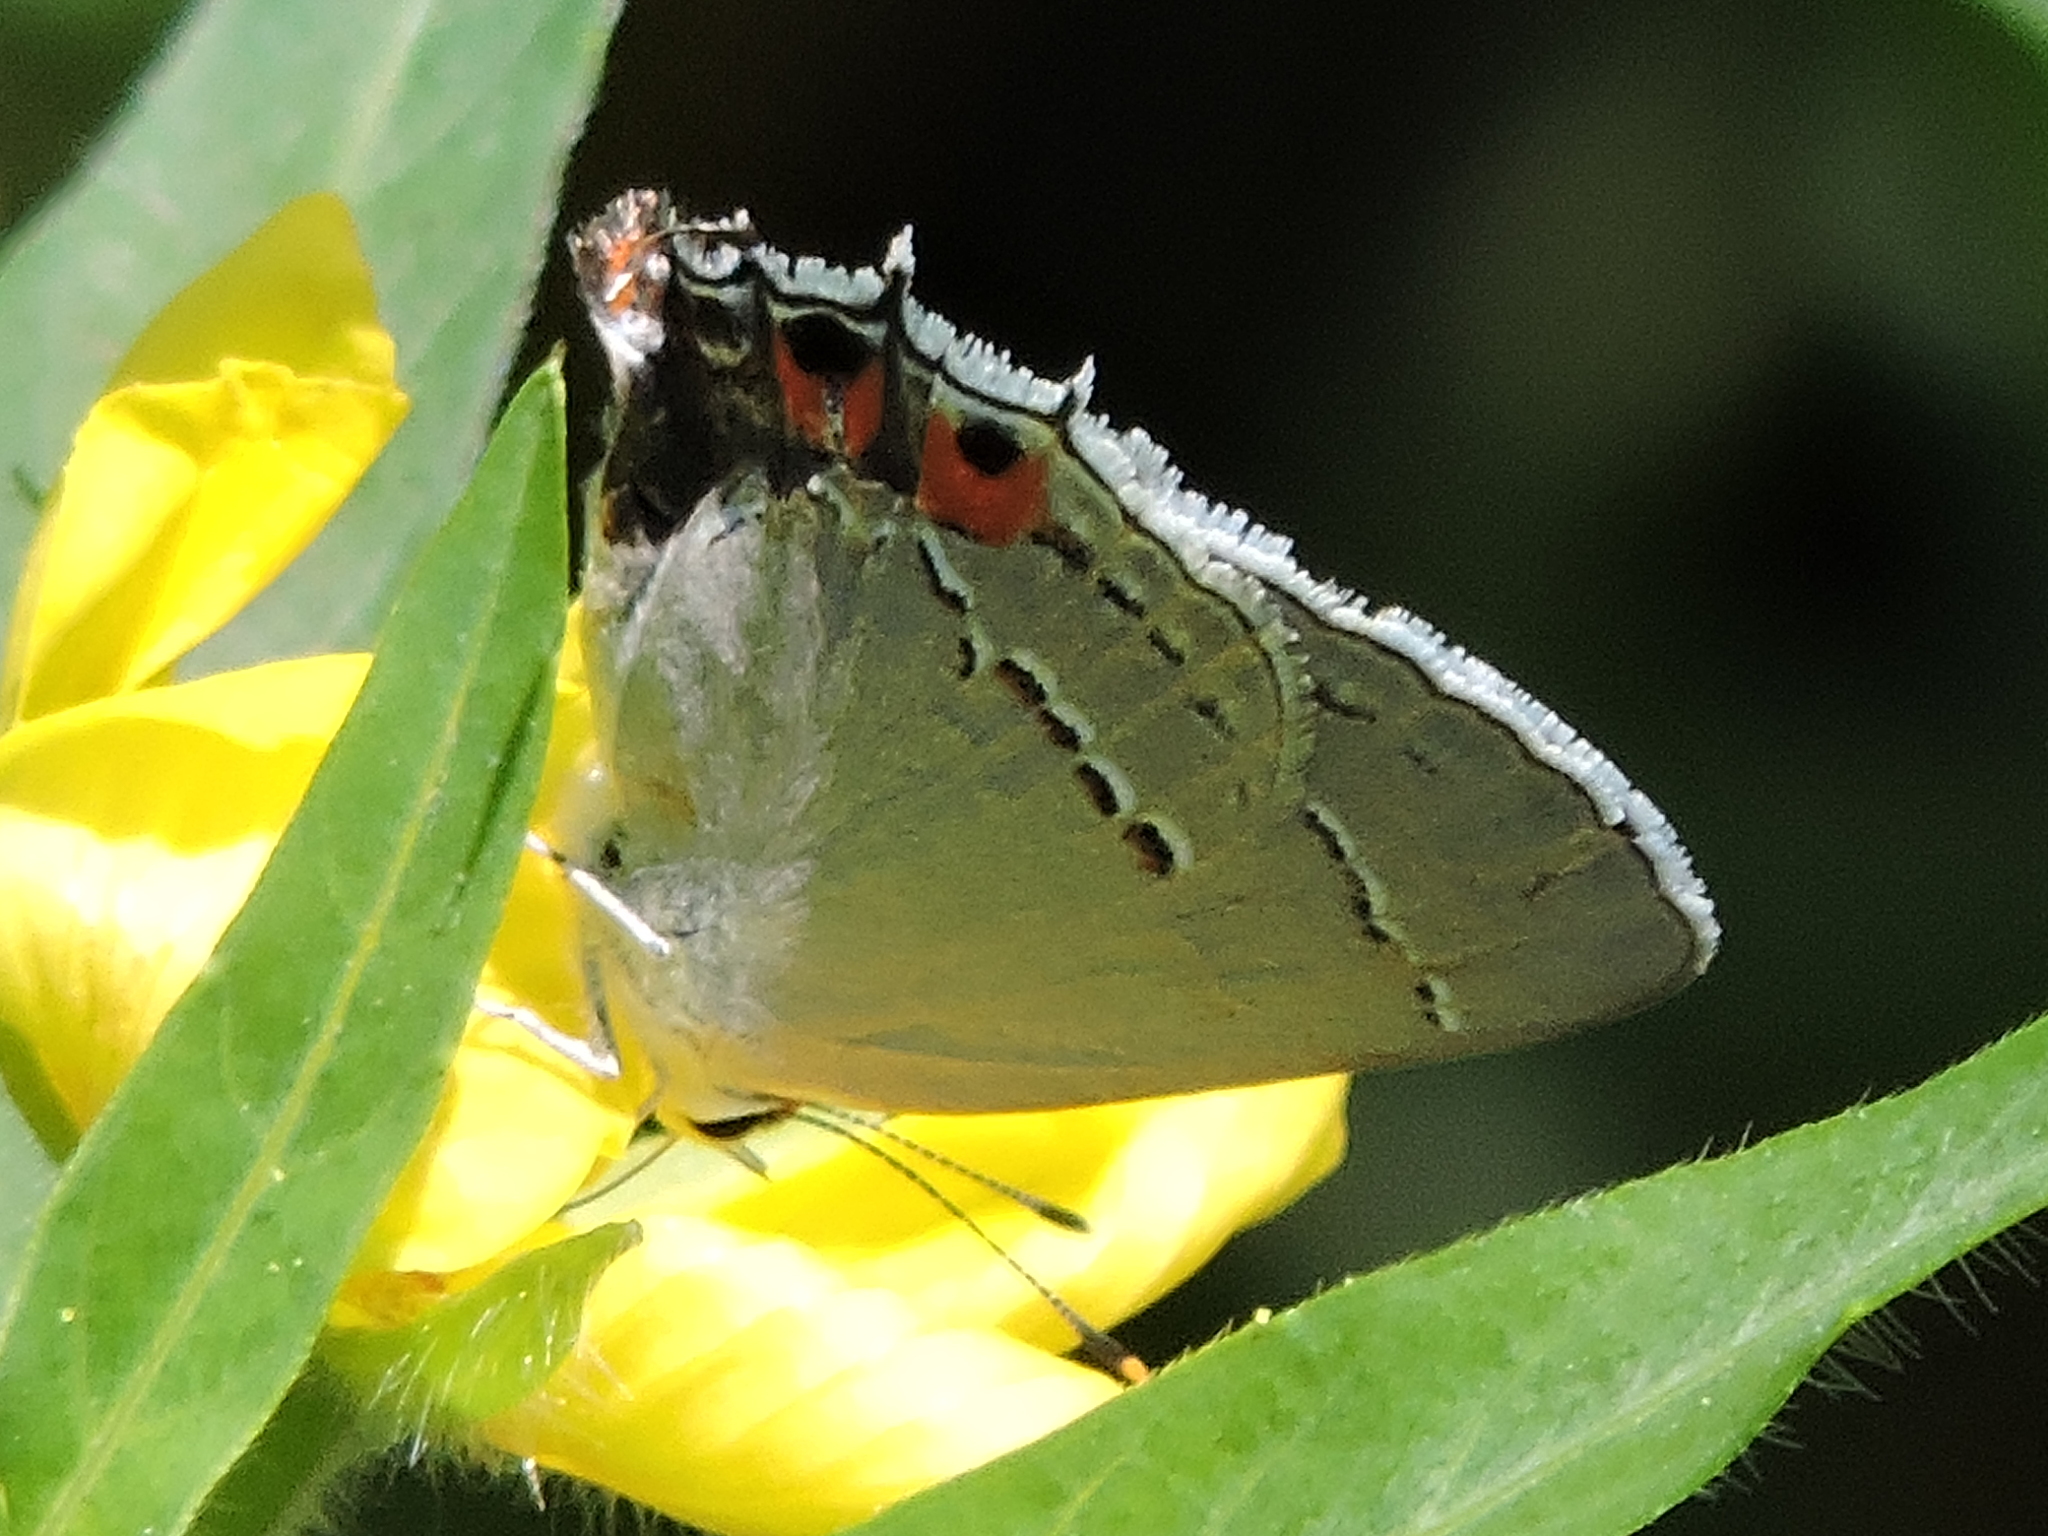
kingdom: Animalia
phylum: Arthropoda
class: Insecta
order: Lepidoptera
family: Lycaenidae
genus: Strymon
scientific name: Strymon melinus
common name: Gray hairstreak
